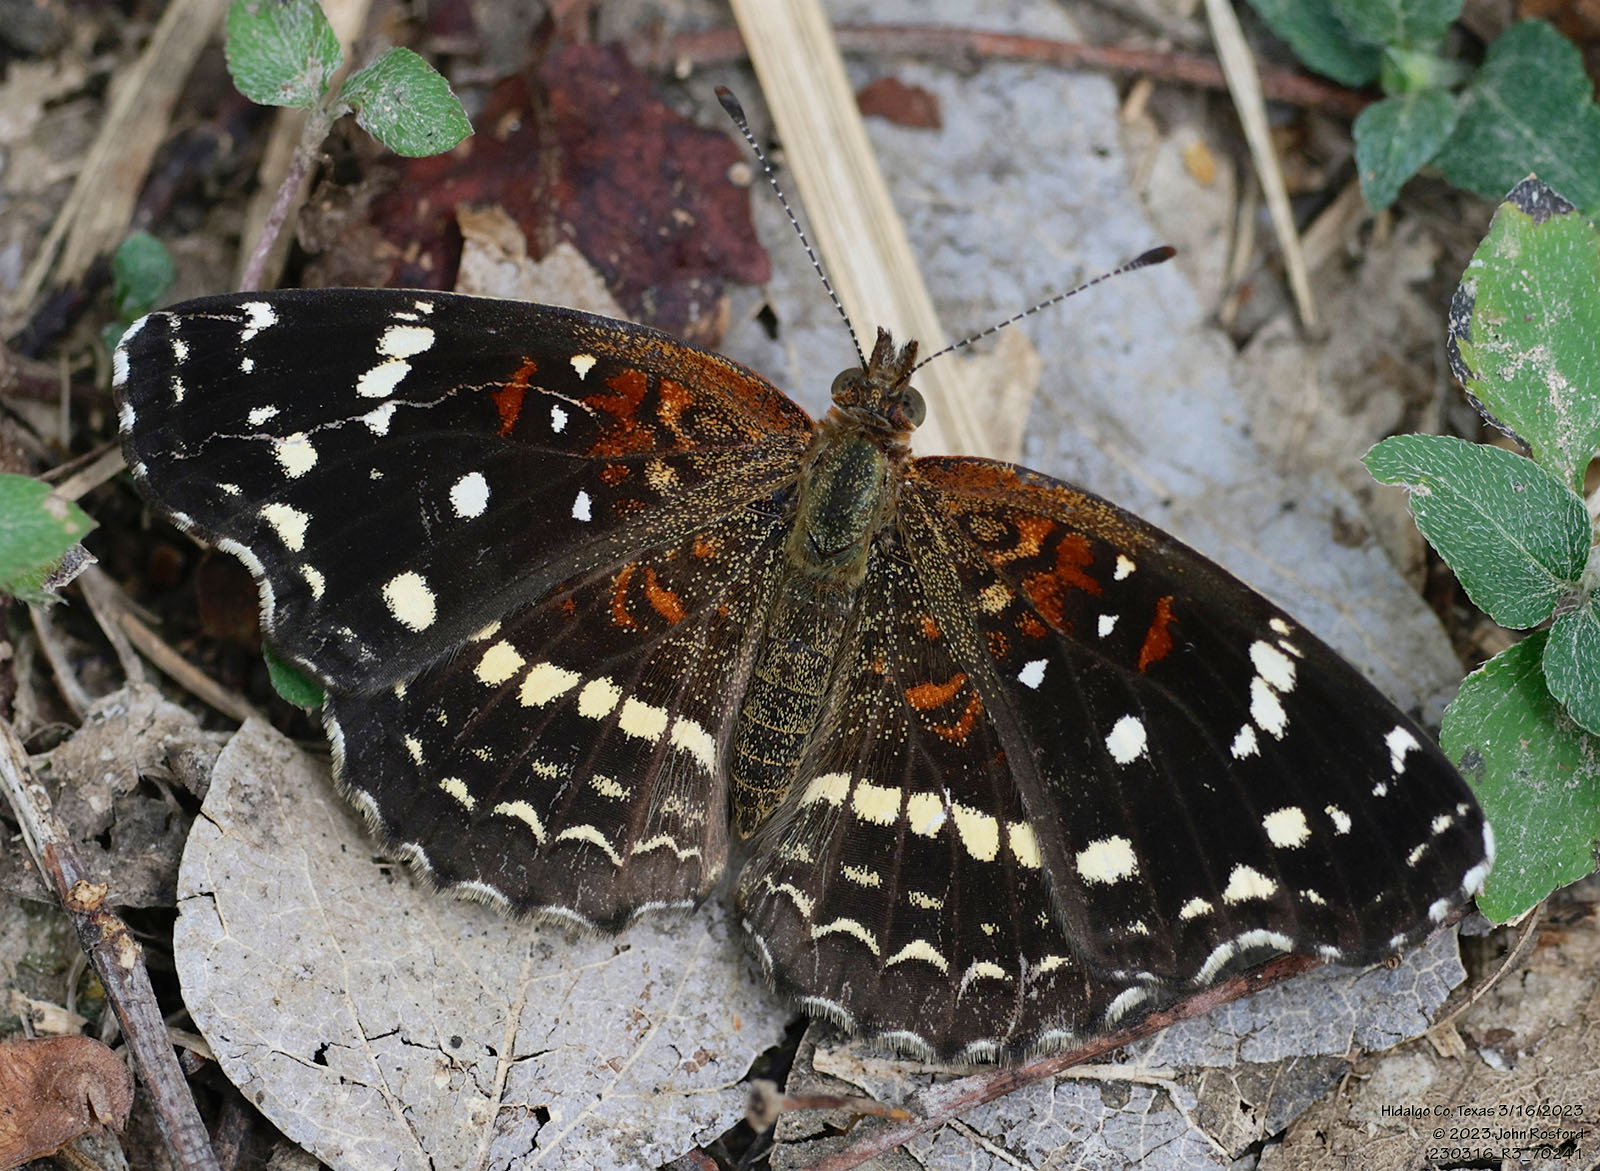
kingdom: Animalia
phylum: Arthropoda
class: Insecta
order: Lepidoptera
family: Nymphalidae
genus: Anthanassa
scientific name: Anthanassa texana
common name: Texan crescent
